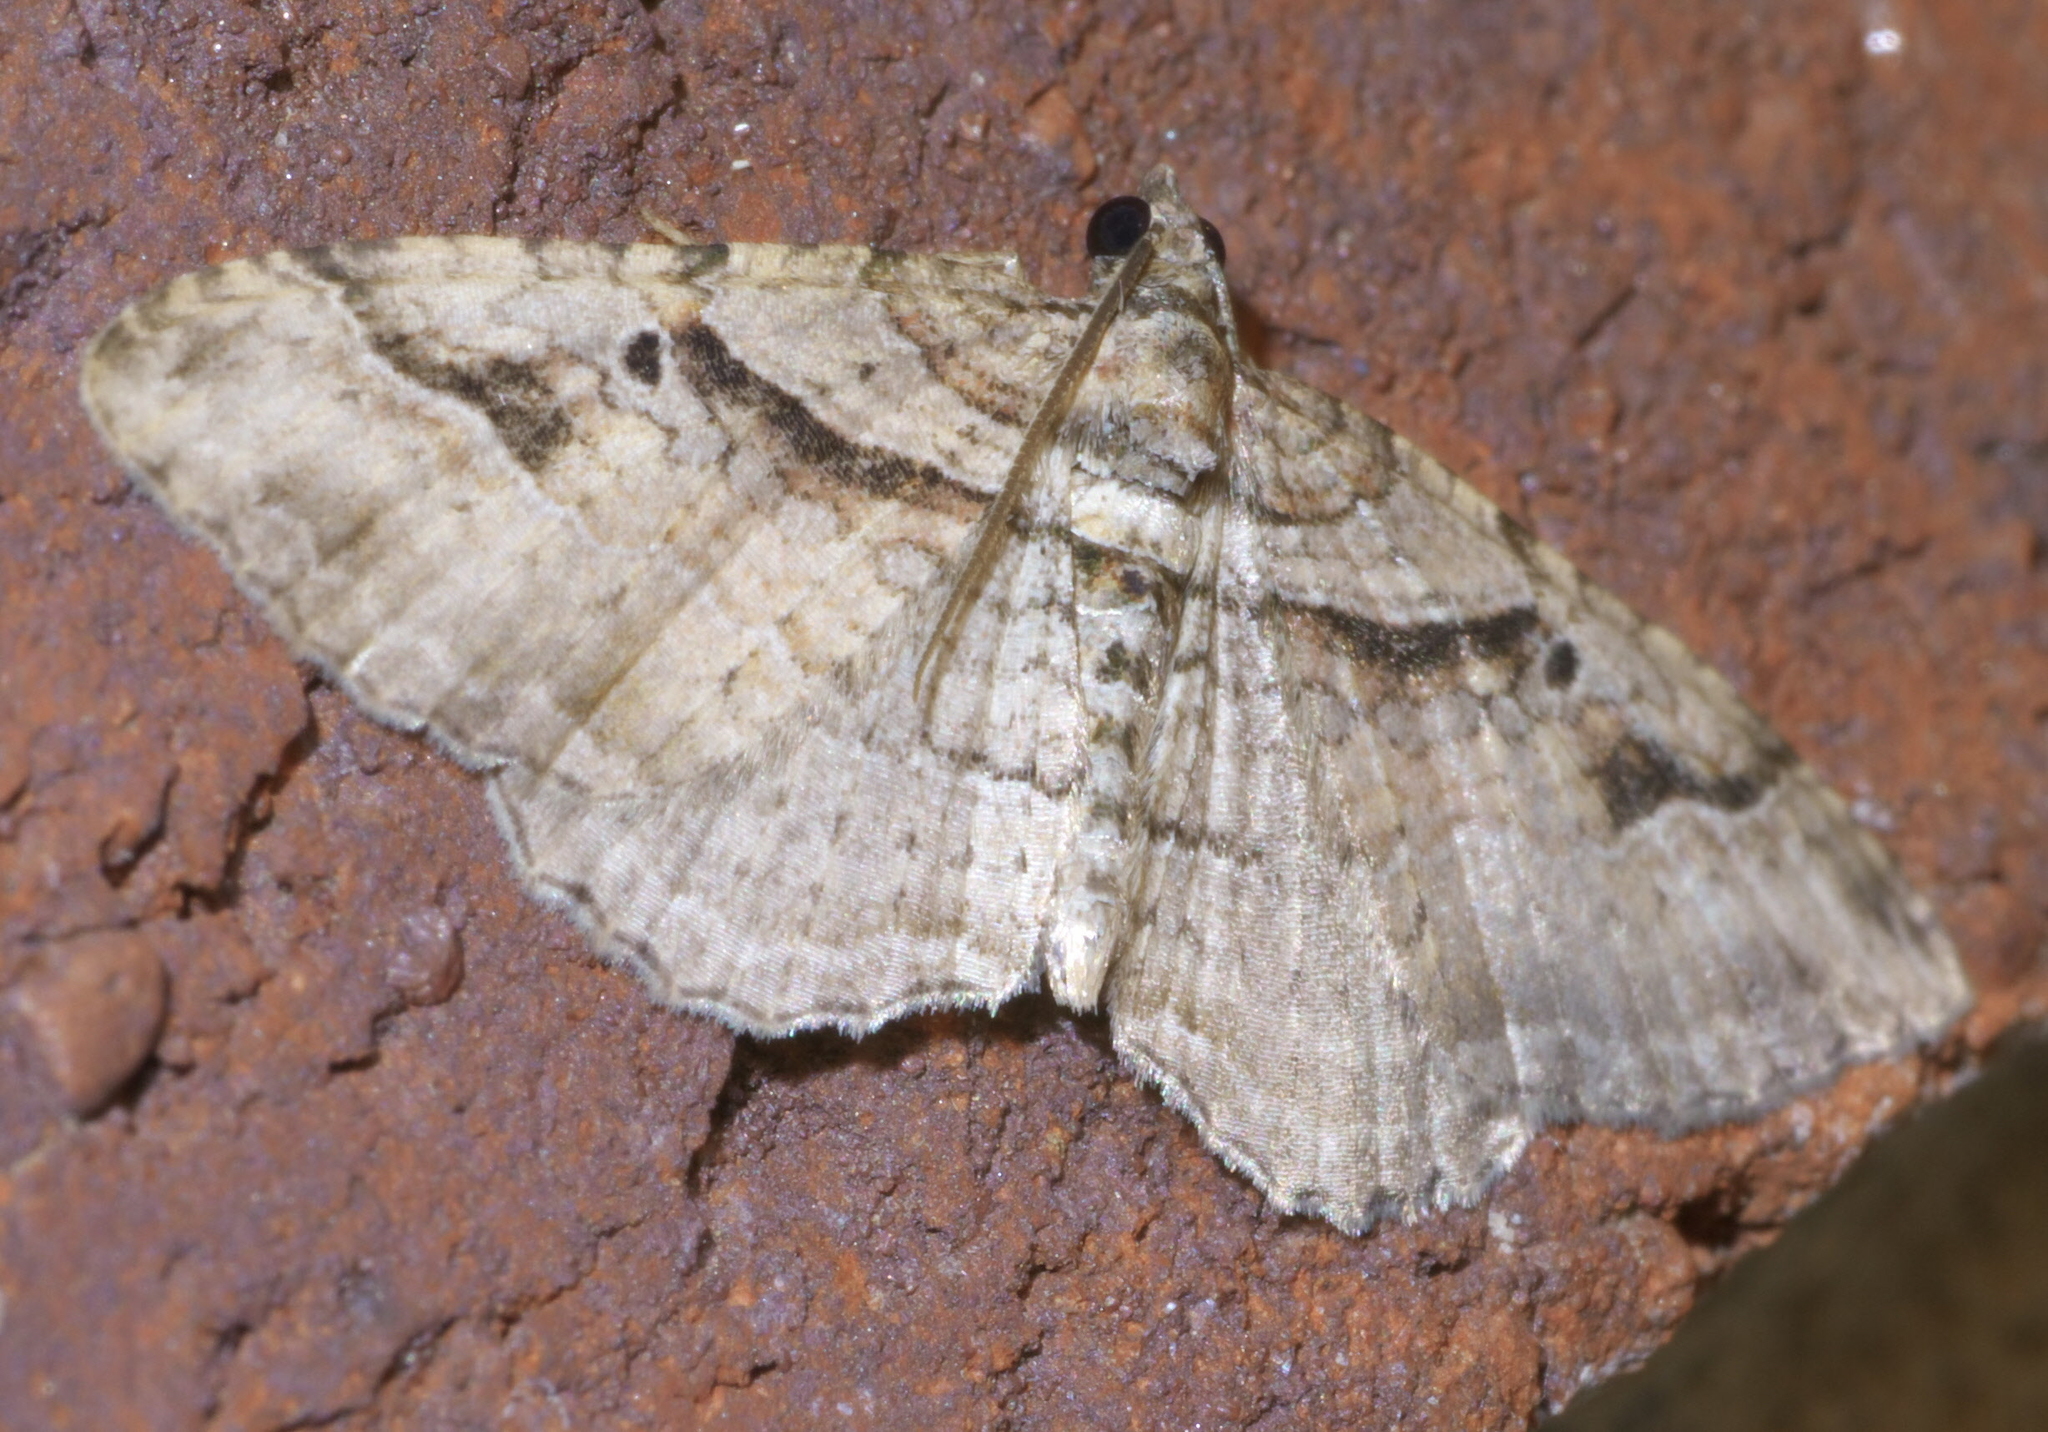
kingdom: Animalia
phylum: Arthropoda
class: Insecta
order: Lepidoptera
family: Geometridae
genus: Costaconvexa
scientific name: Costaconvexa centrostrigaria
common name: Bent-line carpet
